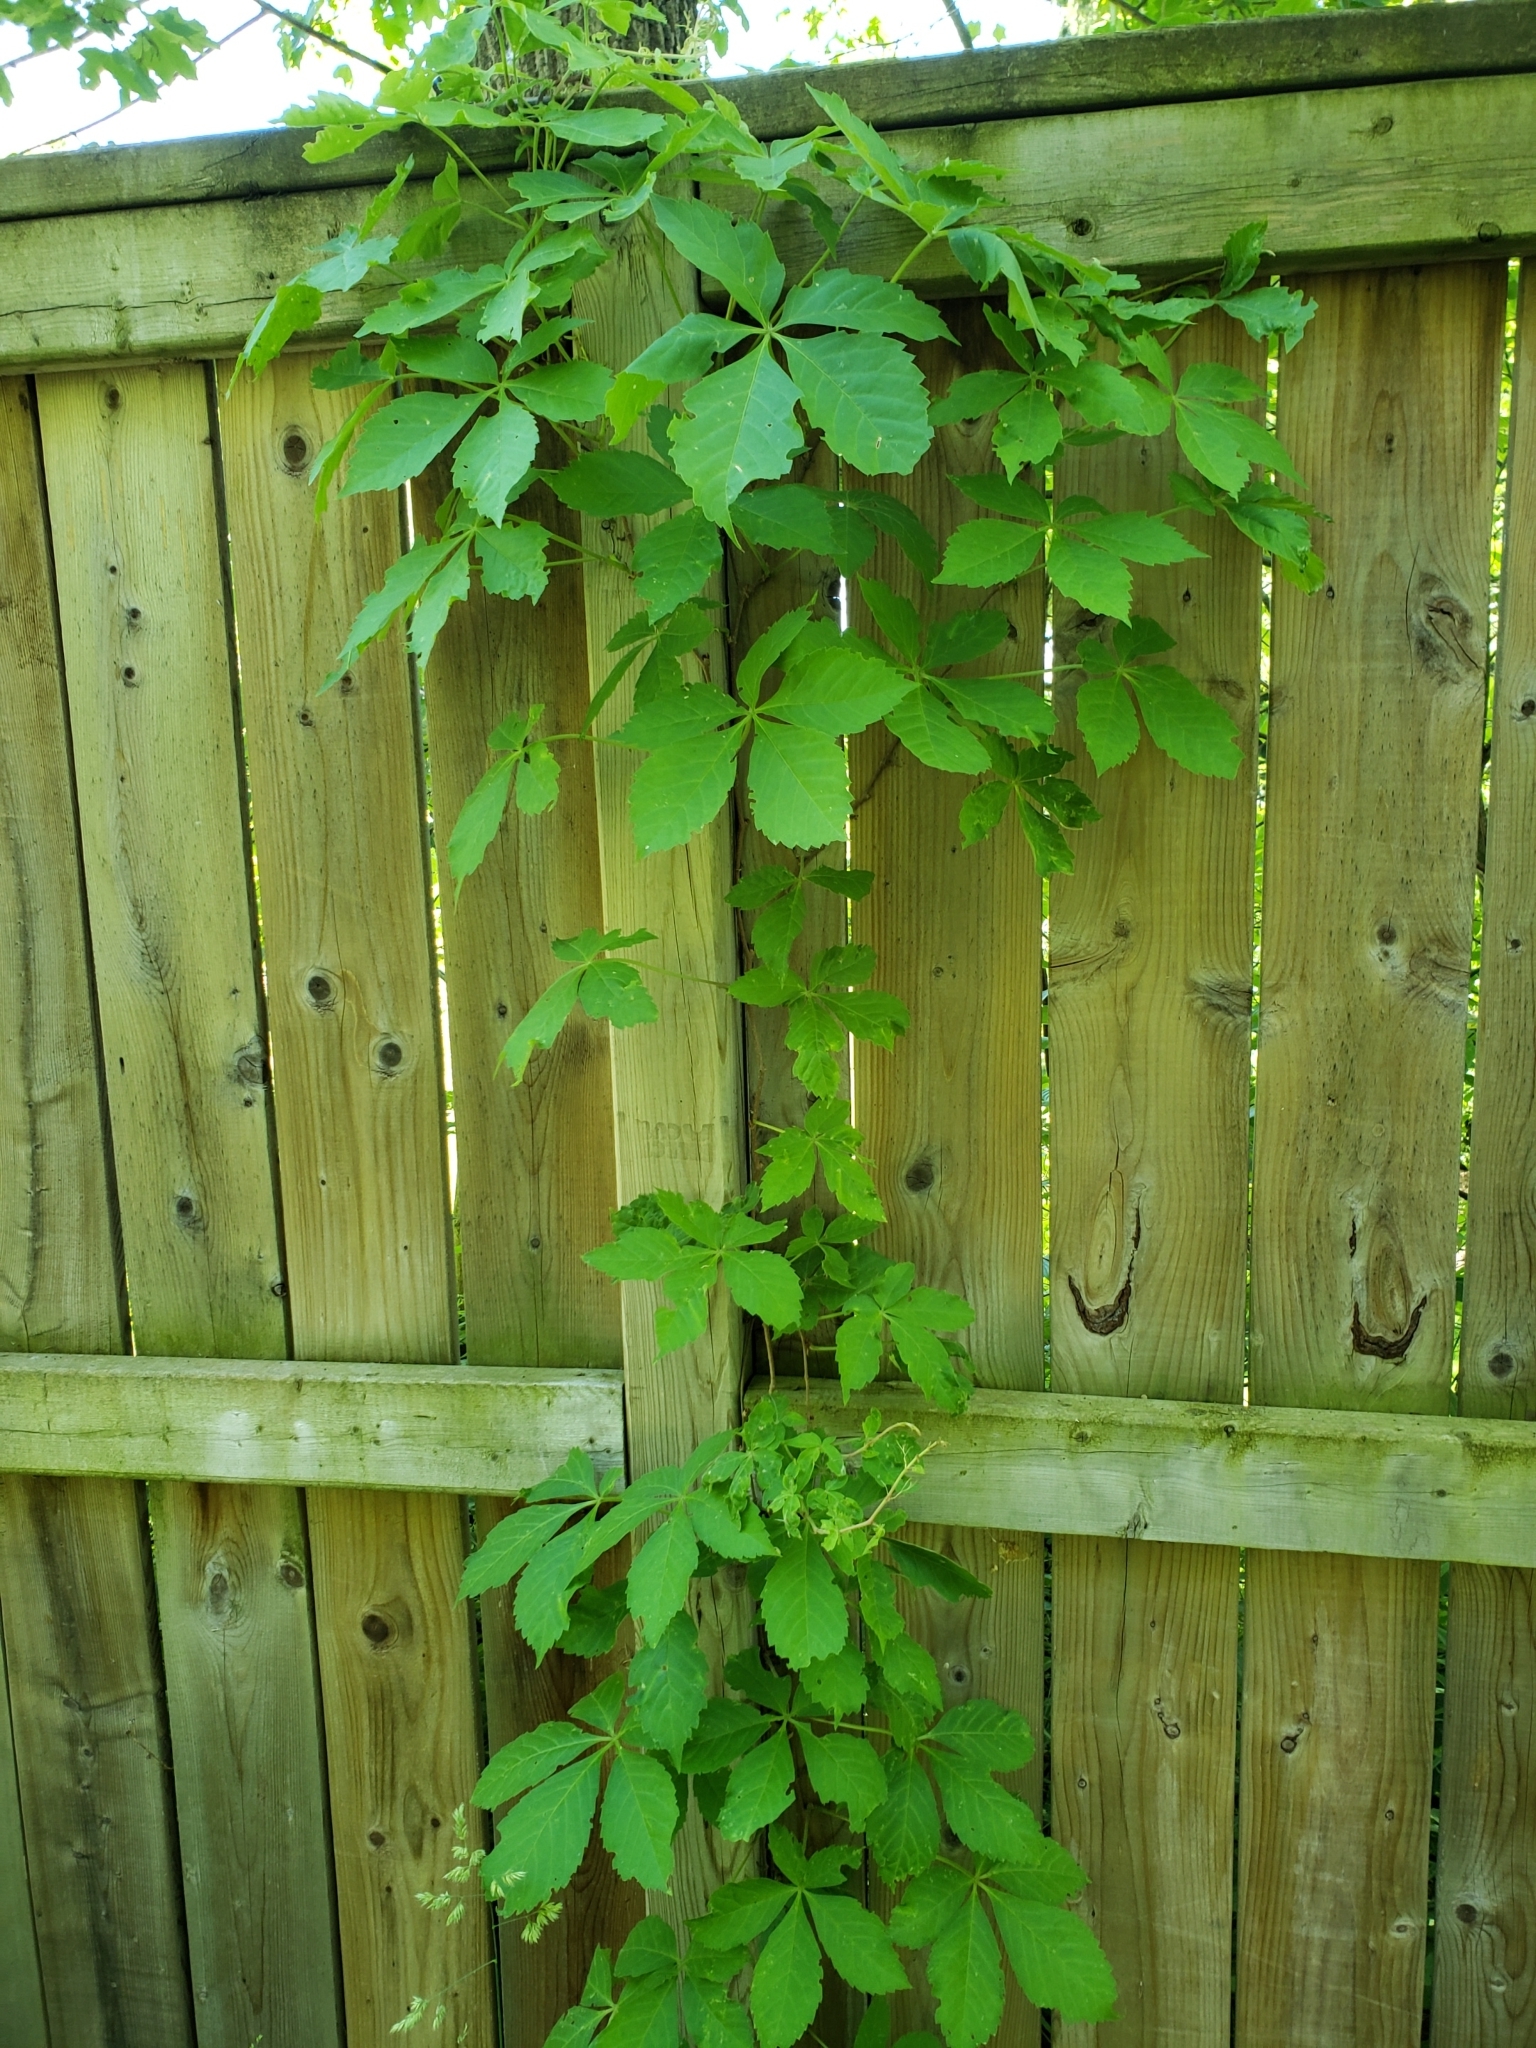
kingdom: Plantae
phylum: Tracheophyta
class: Magnoliopsida
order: Vitales
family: Vitaceae
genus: Parthenocissus
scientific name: Parthenocissus quinquefolia
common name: Virginia-creeper
